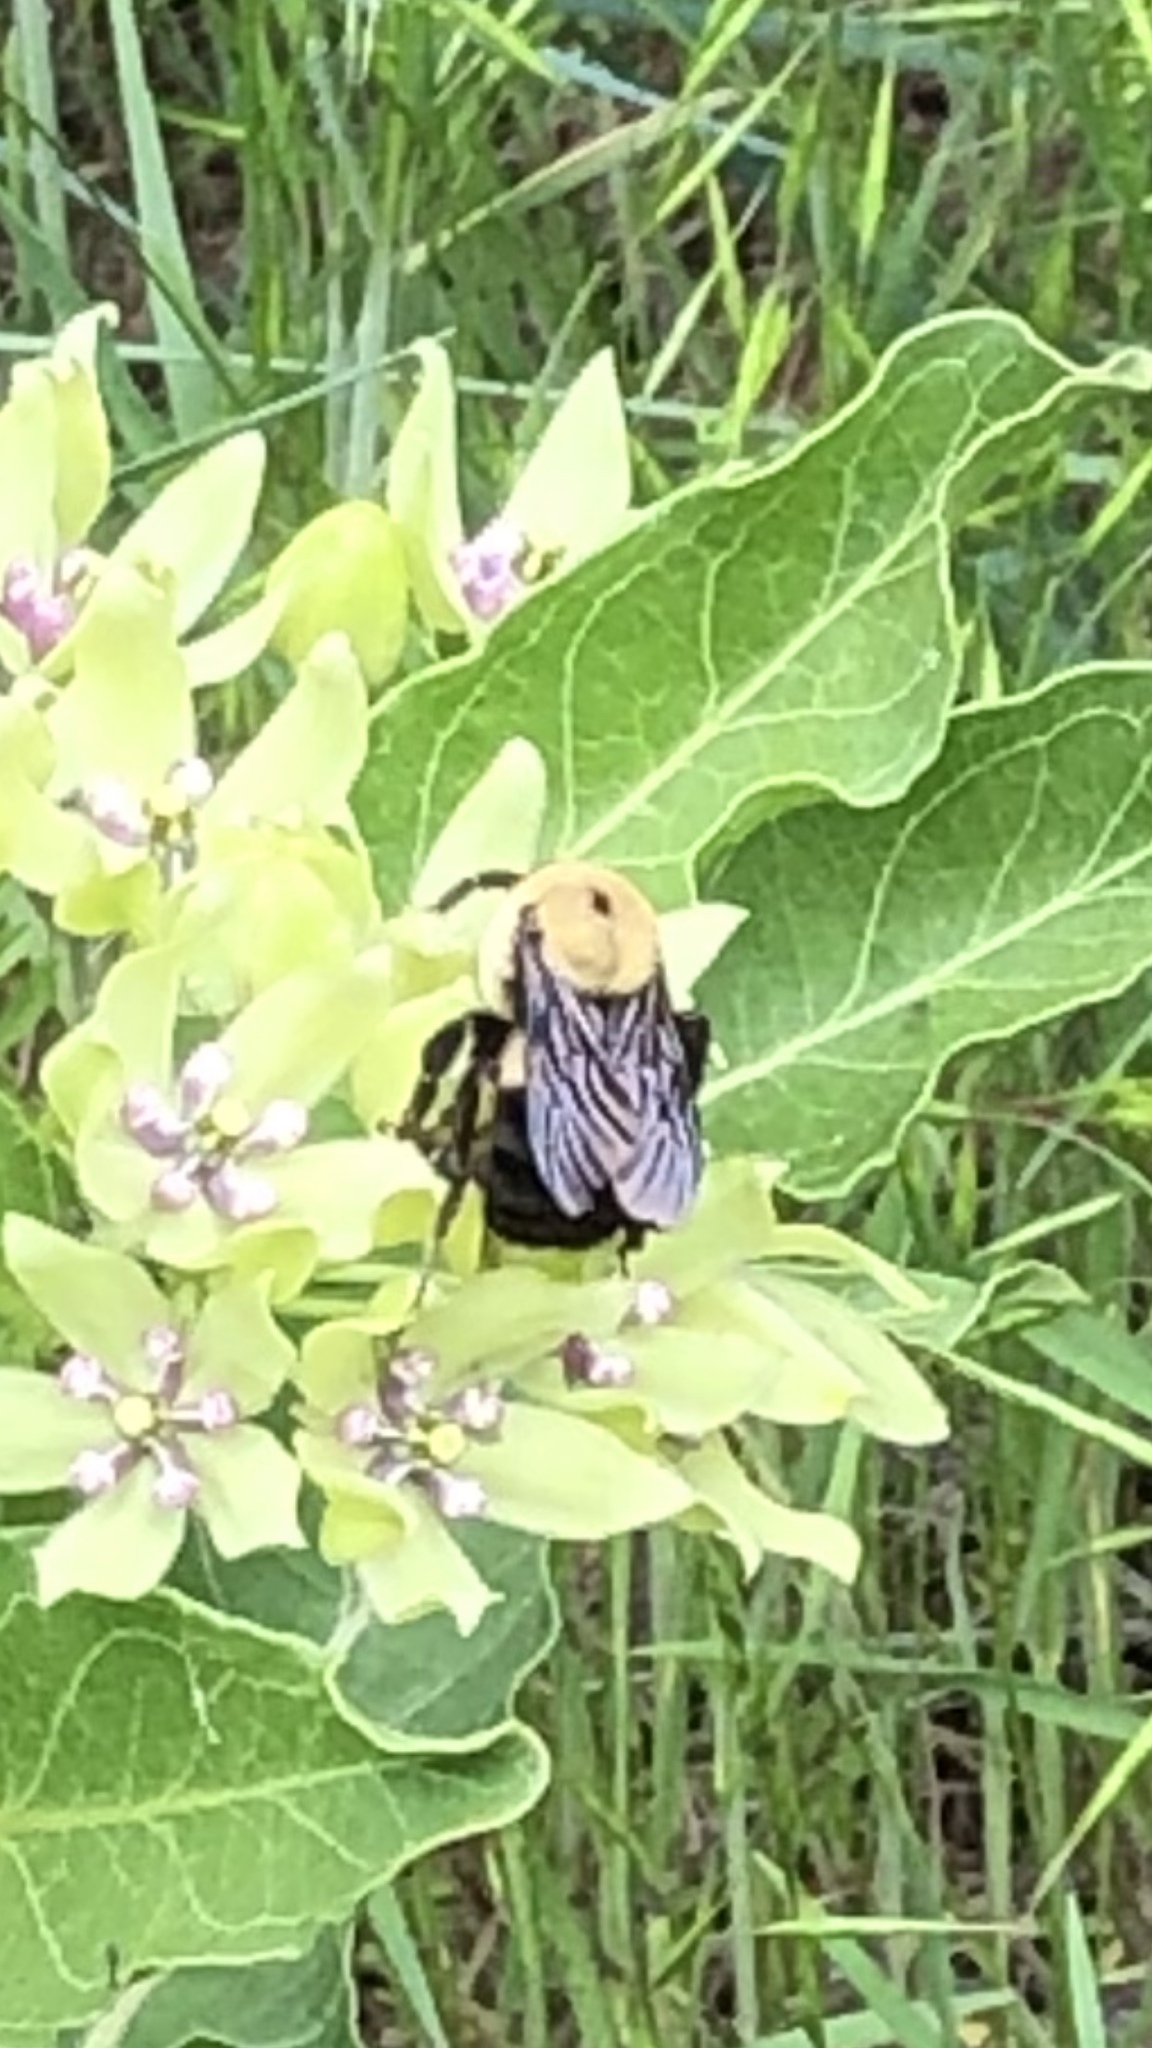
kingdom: Animalia
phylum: Arthropoda
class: Insecta
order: Hymenoptera
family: Apidae
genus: Bombus
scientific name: Bombus griseocollis
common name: Brown-belted bumble bee
